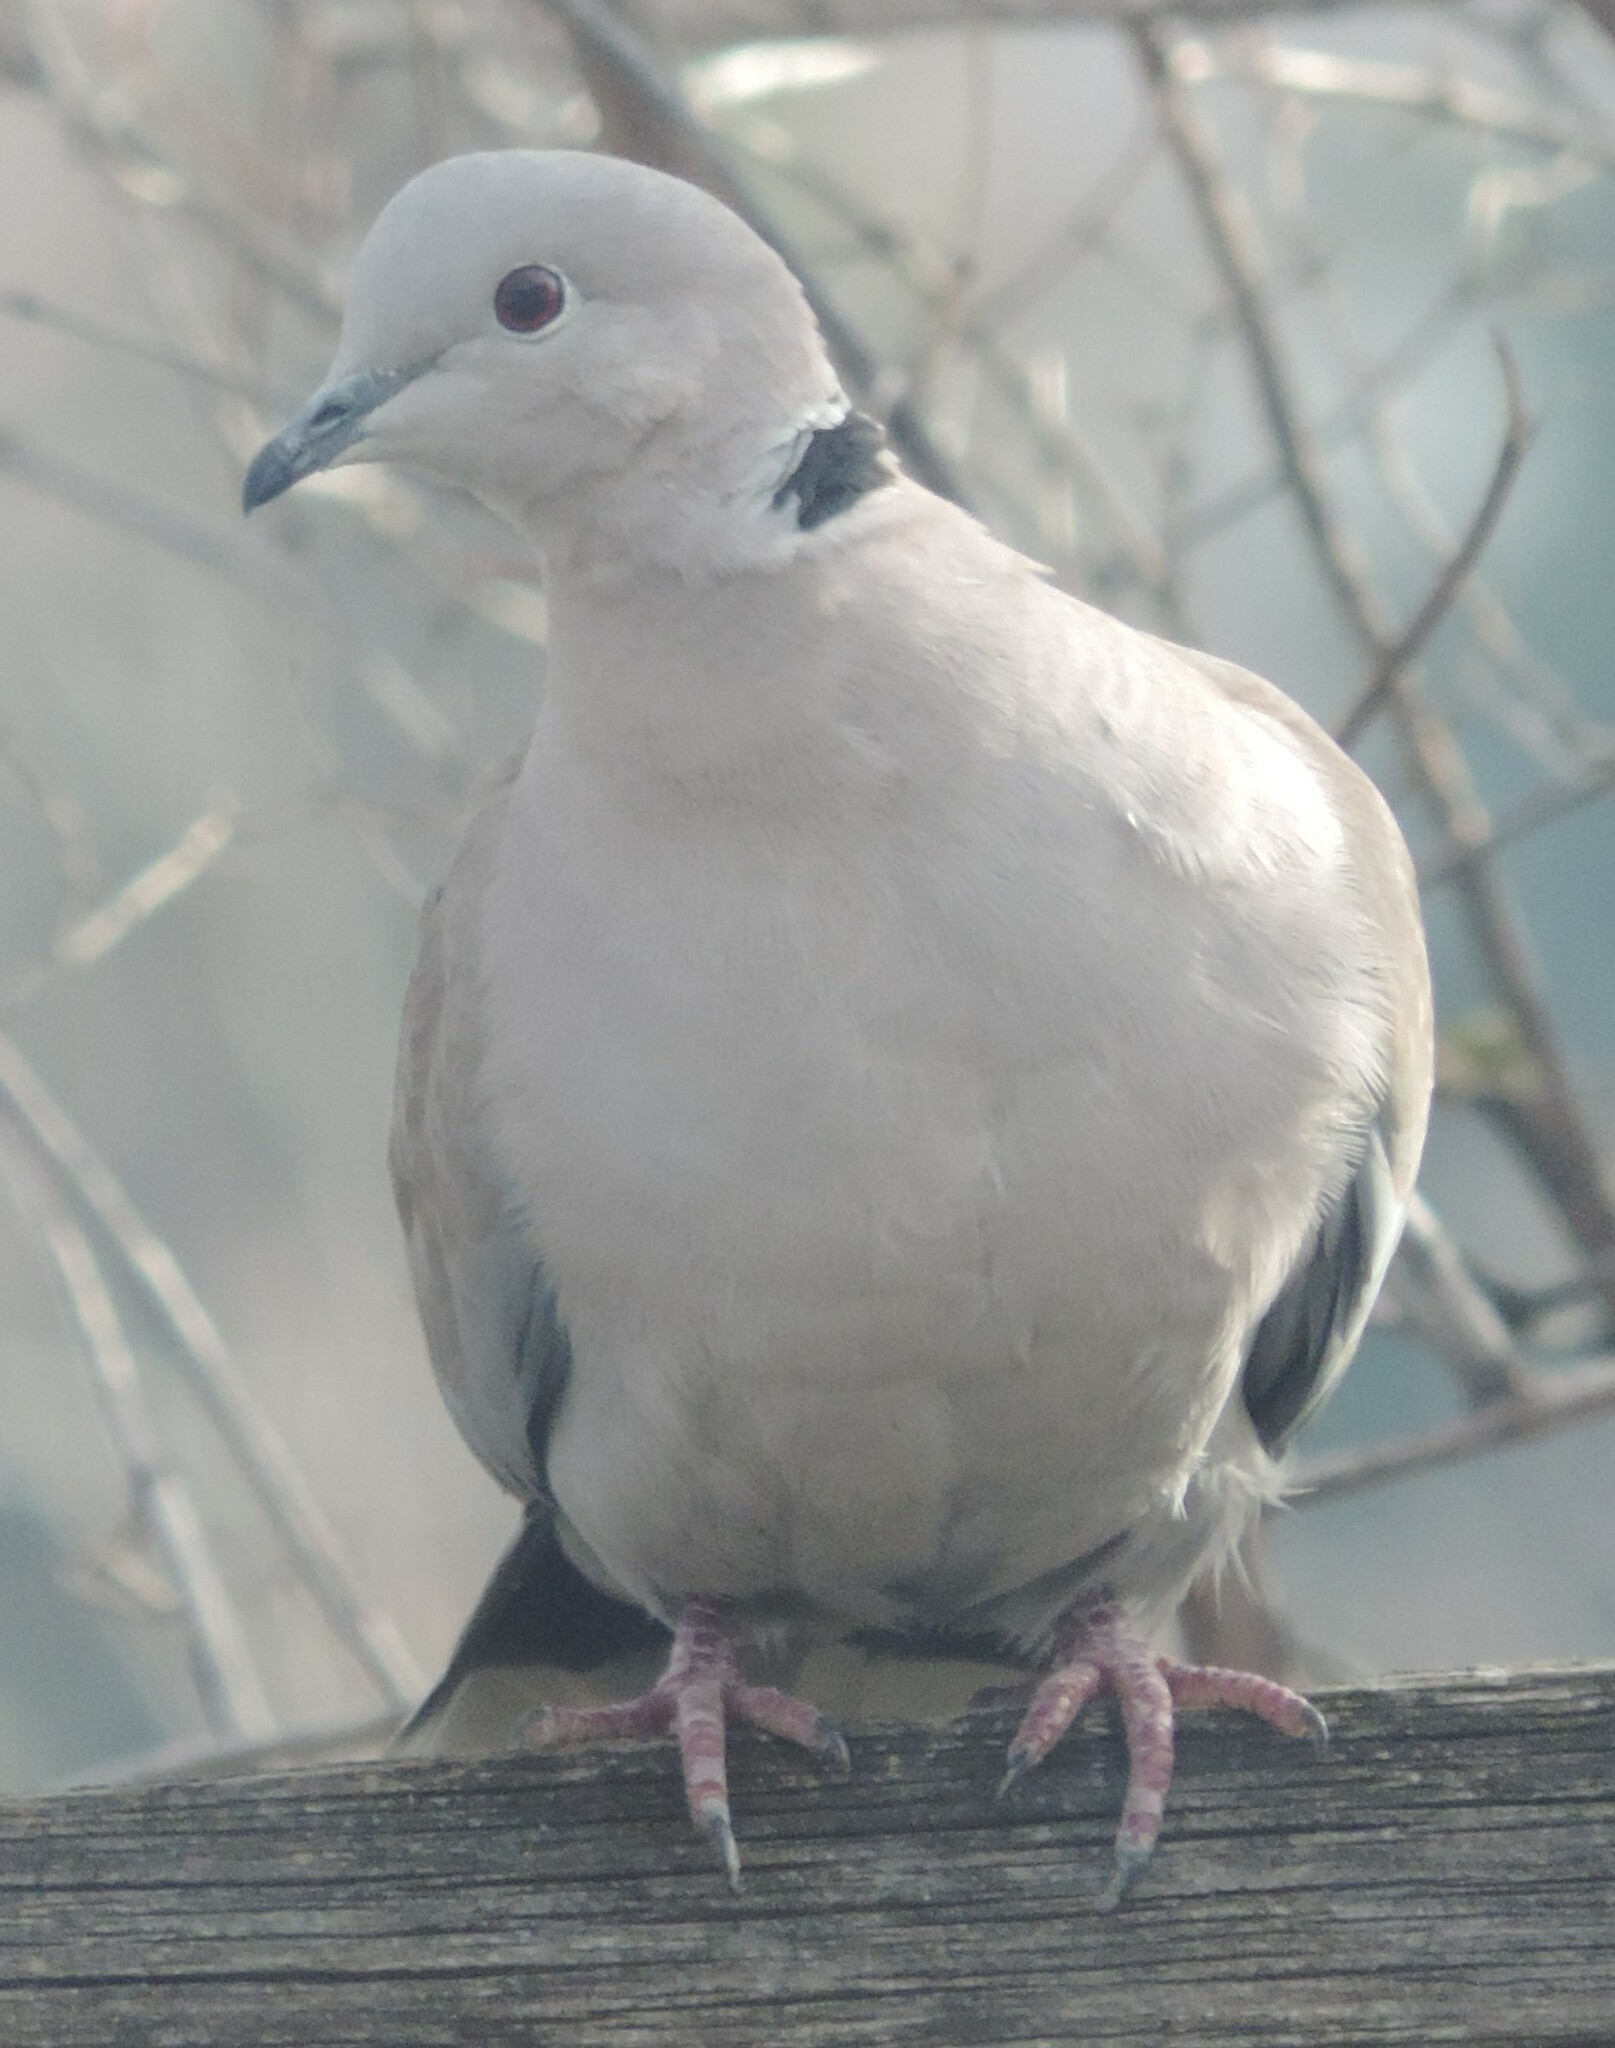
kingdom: Animalia
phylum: Chordata
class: Aves
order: Columbiformes
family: Columbidae
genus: Streptopelia
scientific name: Streptopelia decaocto
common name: Eurasian collared dove
